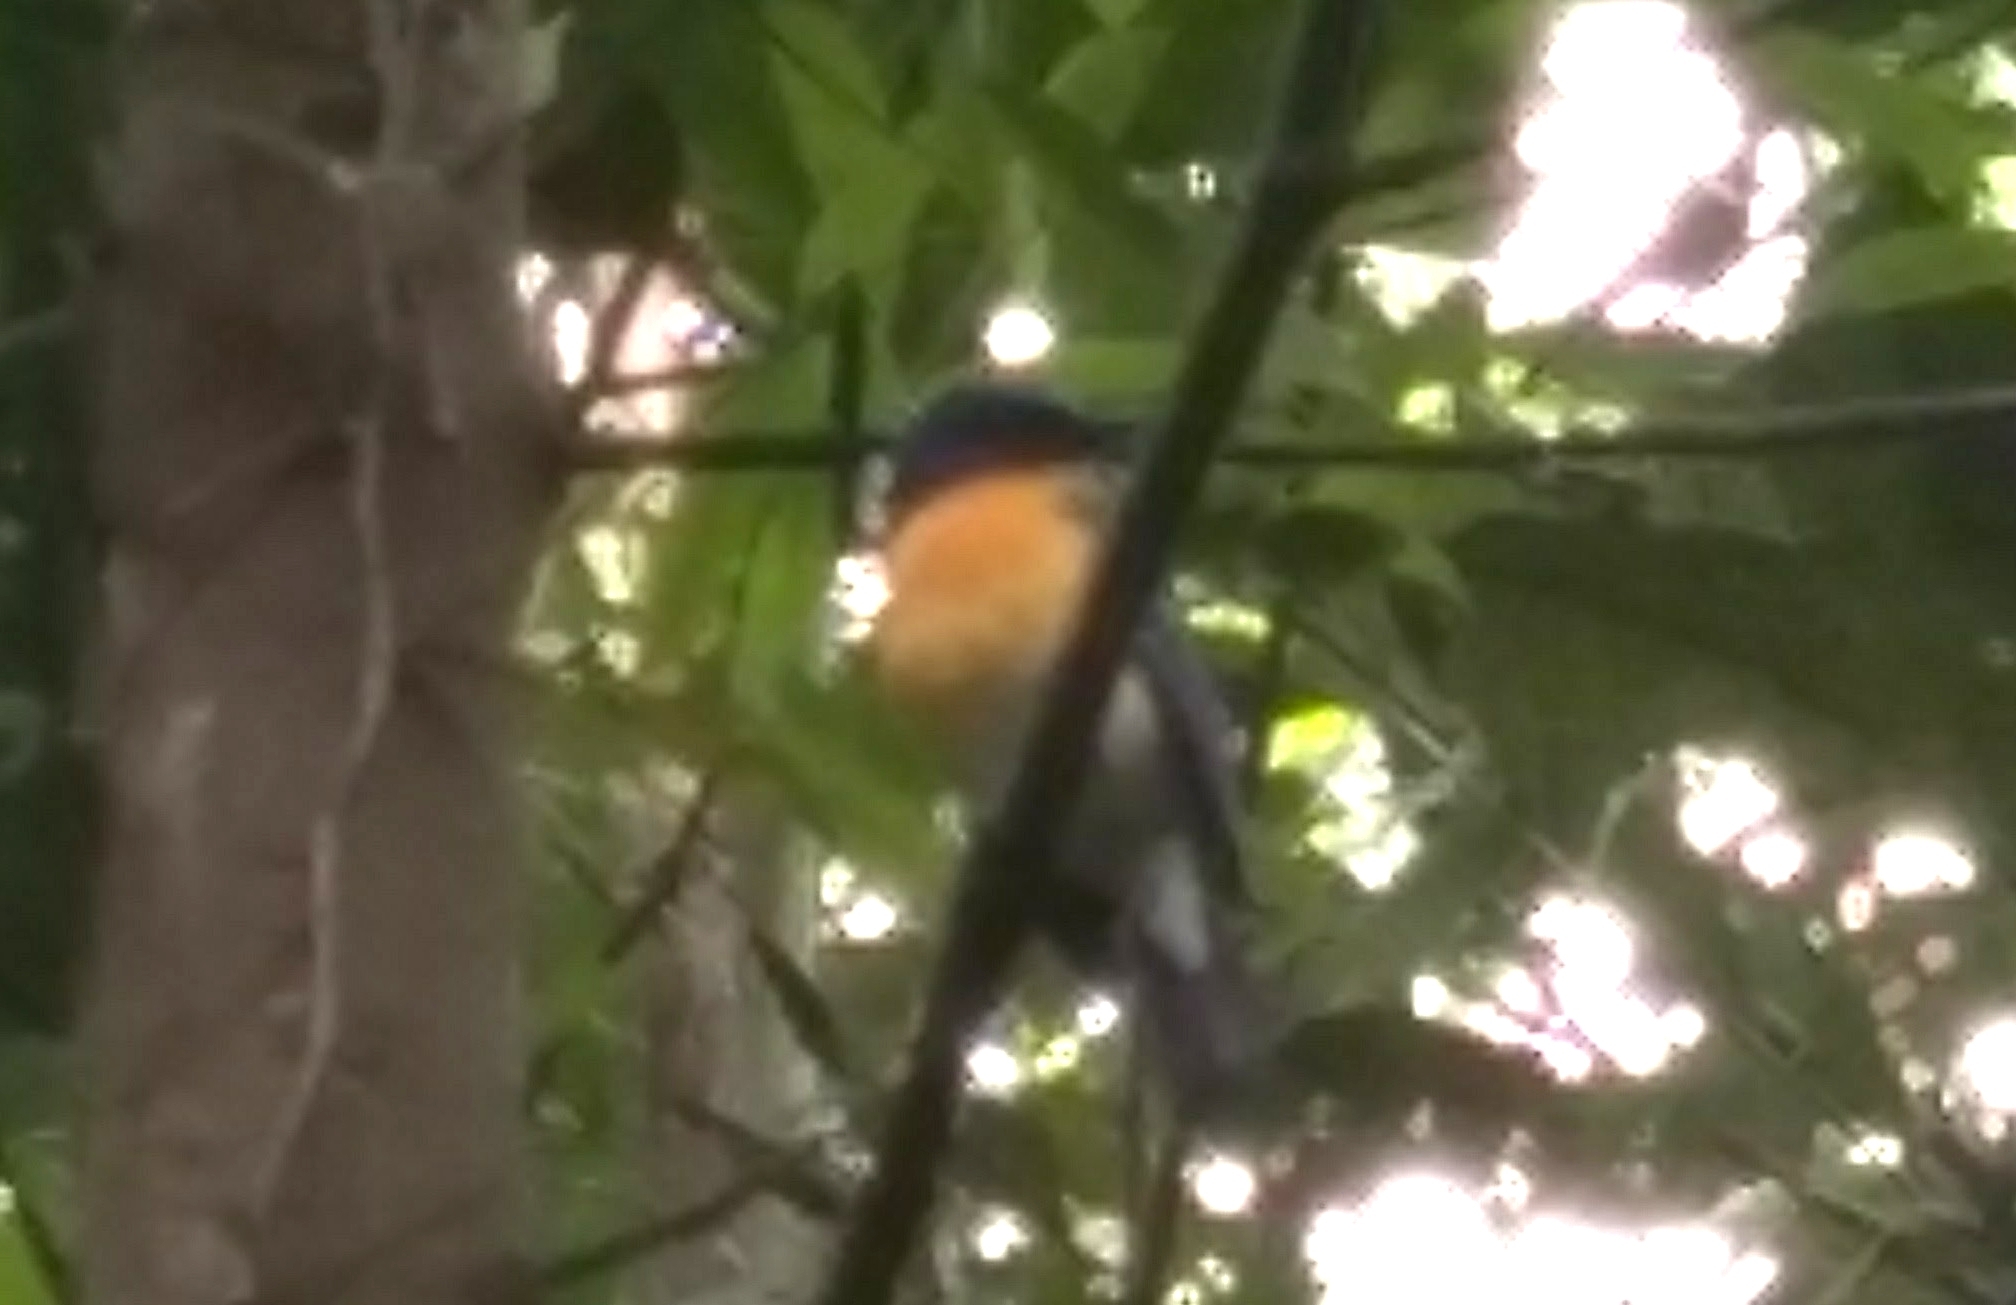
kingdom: Animalia
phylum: Chordata
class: Aves
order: Passeriformes
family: Muscicapidae
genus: Cyornis
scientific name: Cyornis tickelliae
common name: Tickell's blue flycatcher
